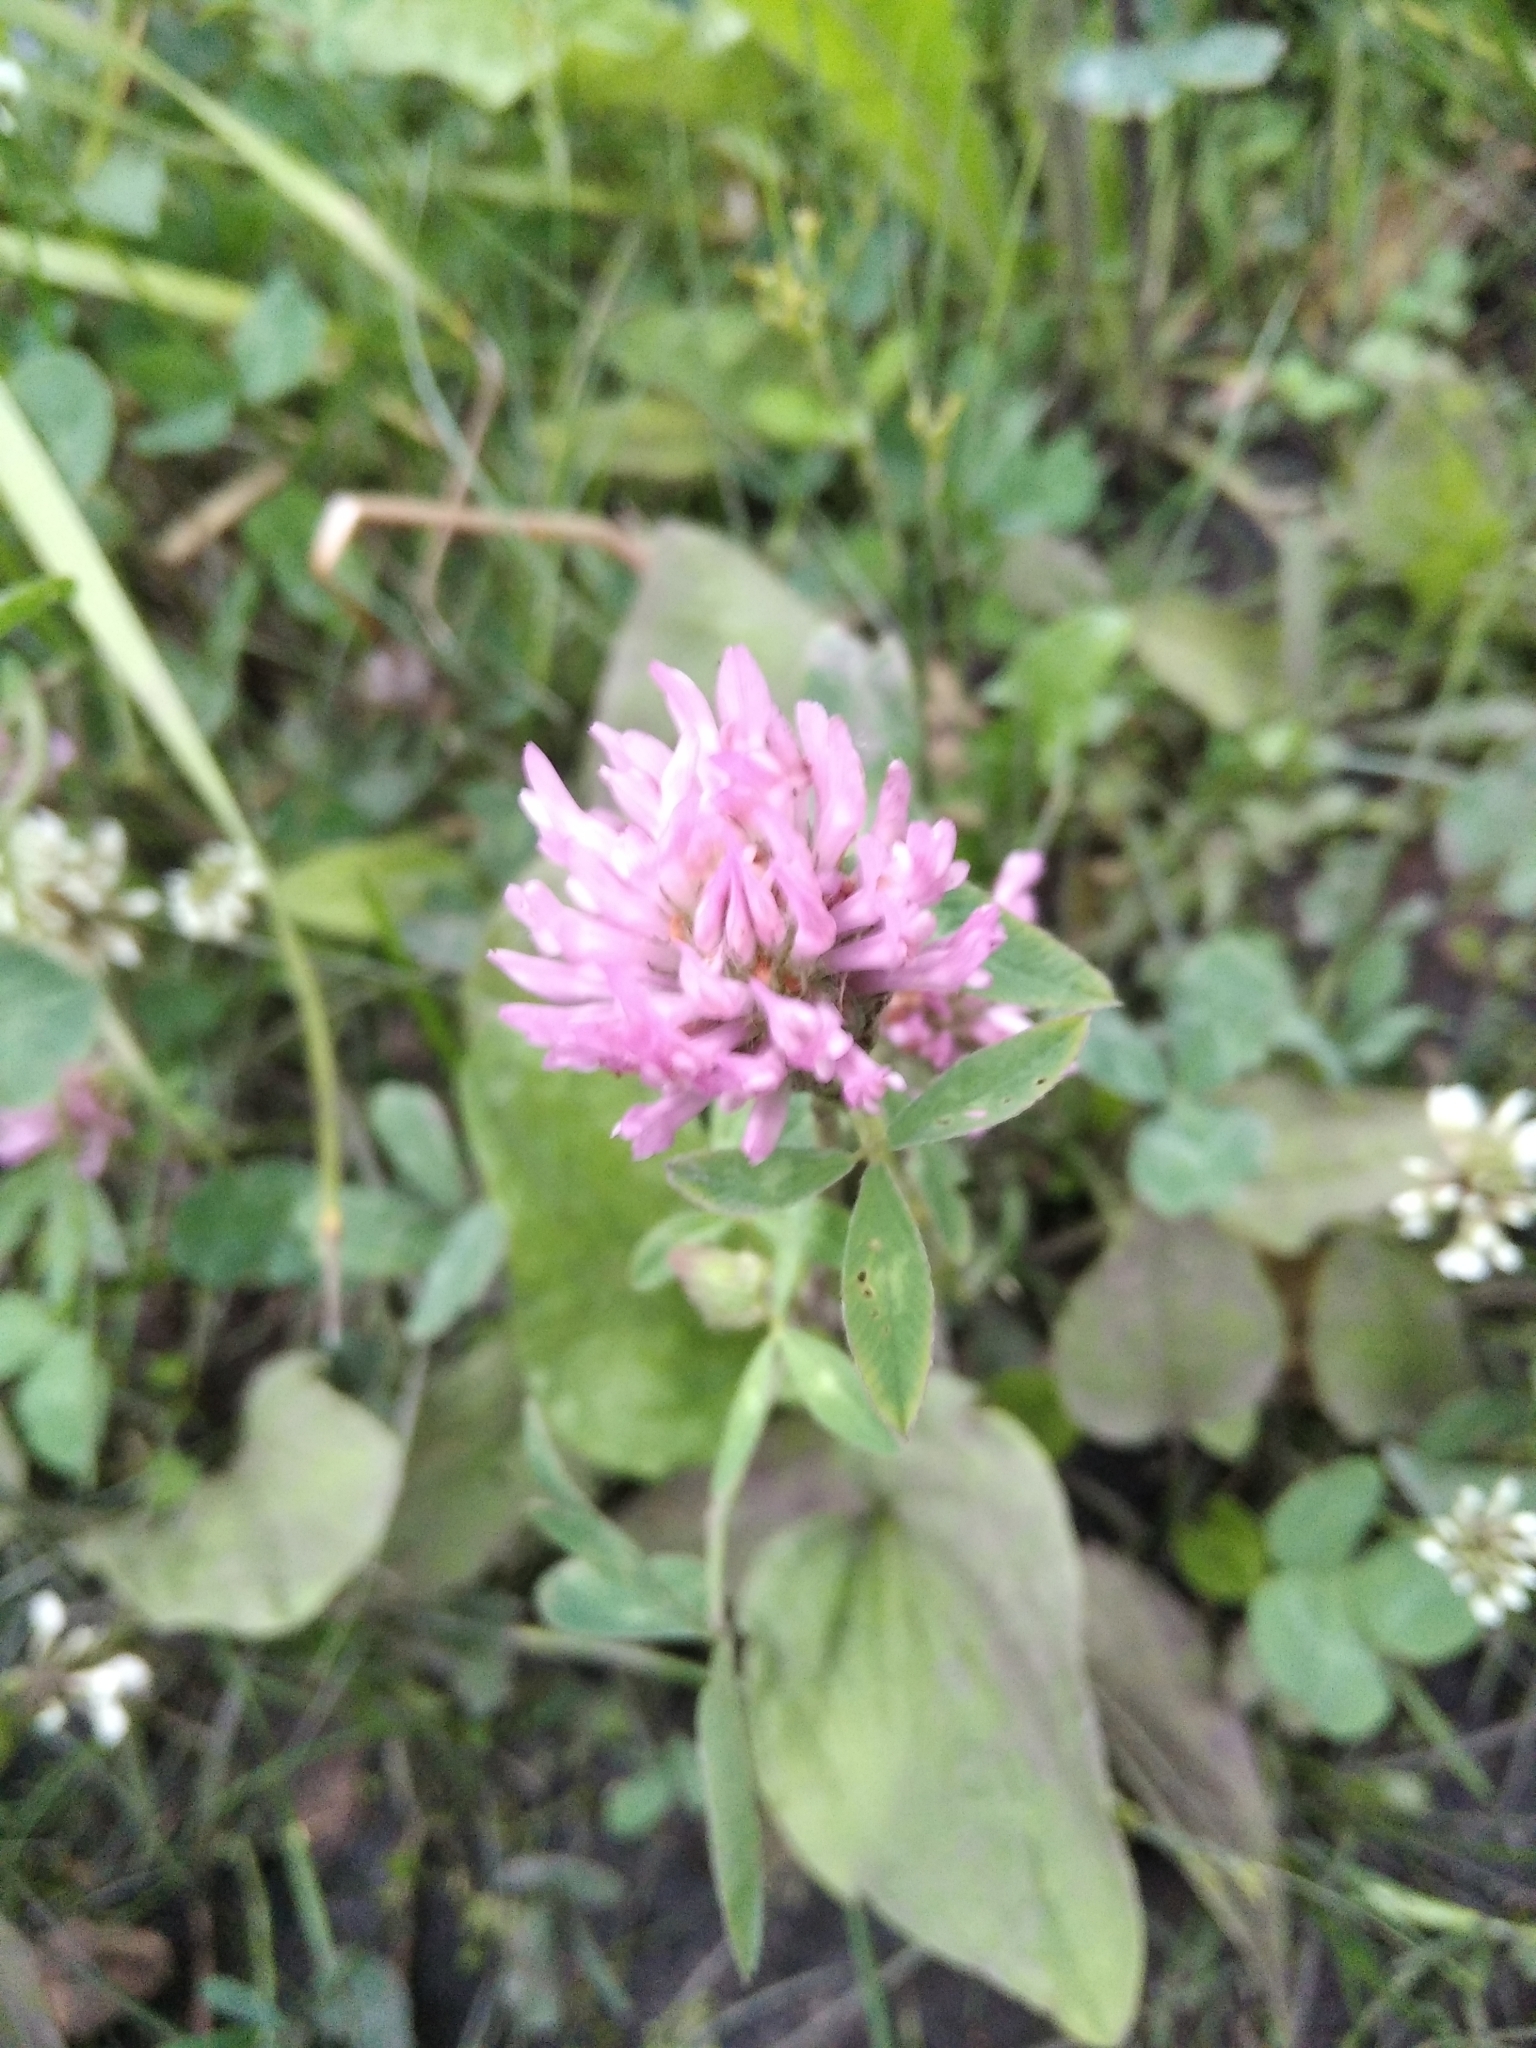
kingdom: Plantae
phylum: Tracheophyta
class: Magnoliopsida
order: Fabales
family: Fabaceae
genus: Trifolium
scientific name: Trifolium pratense
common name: Red clover
